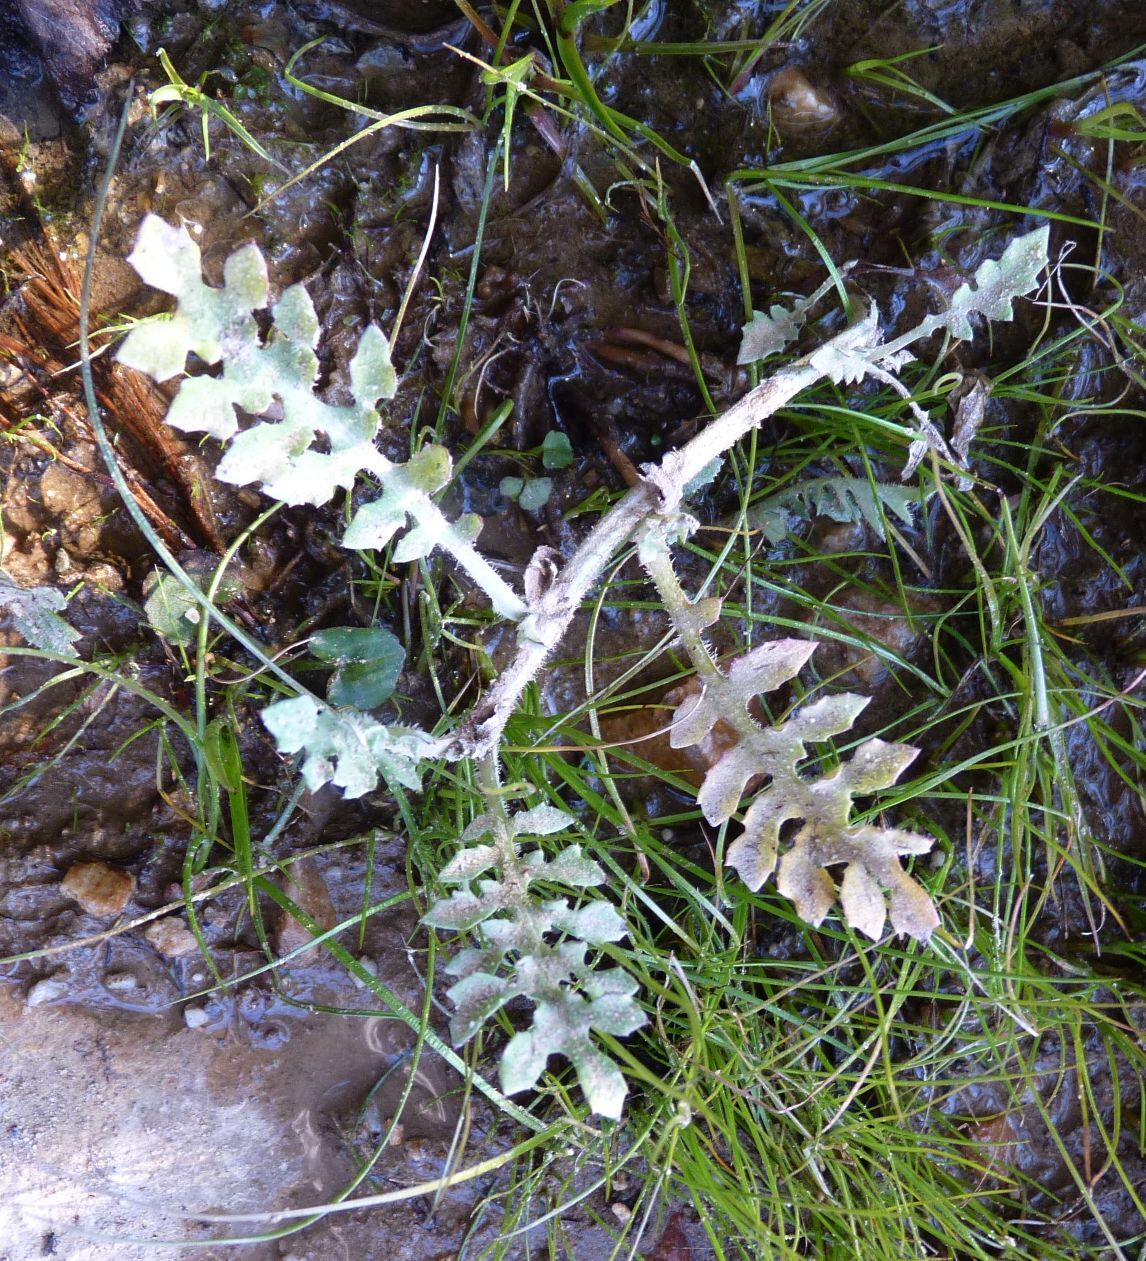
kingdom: Plantae
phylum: Tracheophyta
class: Magnoliopsida
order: Asterales
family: Asteraceae
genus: Arctotheca
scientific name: Arctotheca prostrata
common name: Capeweed
